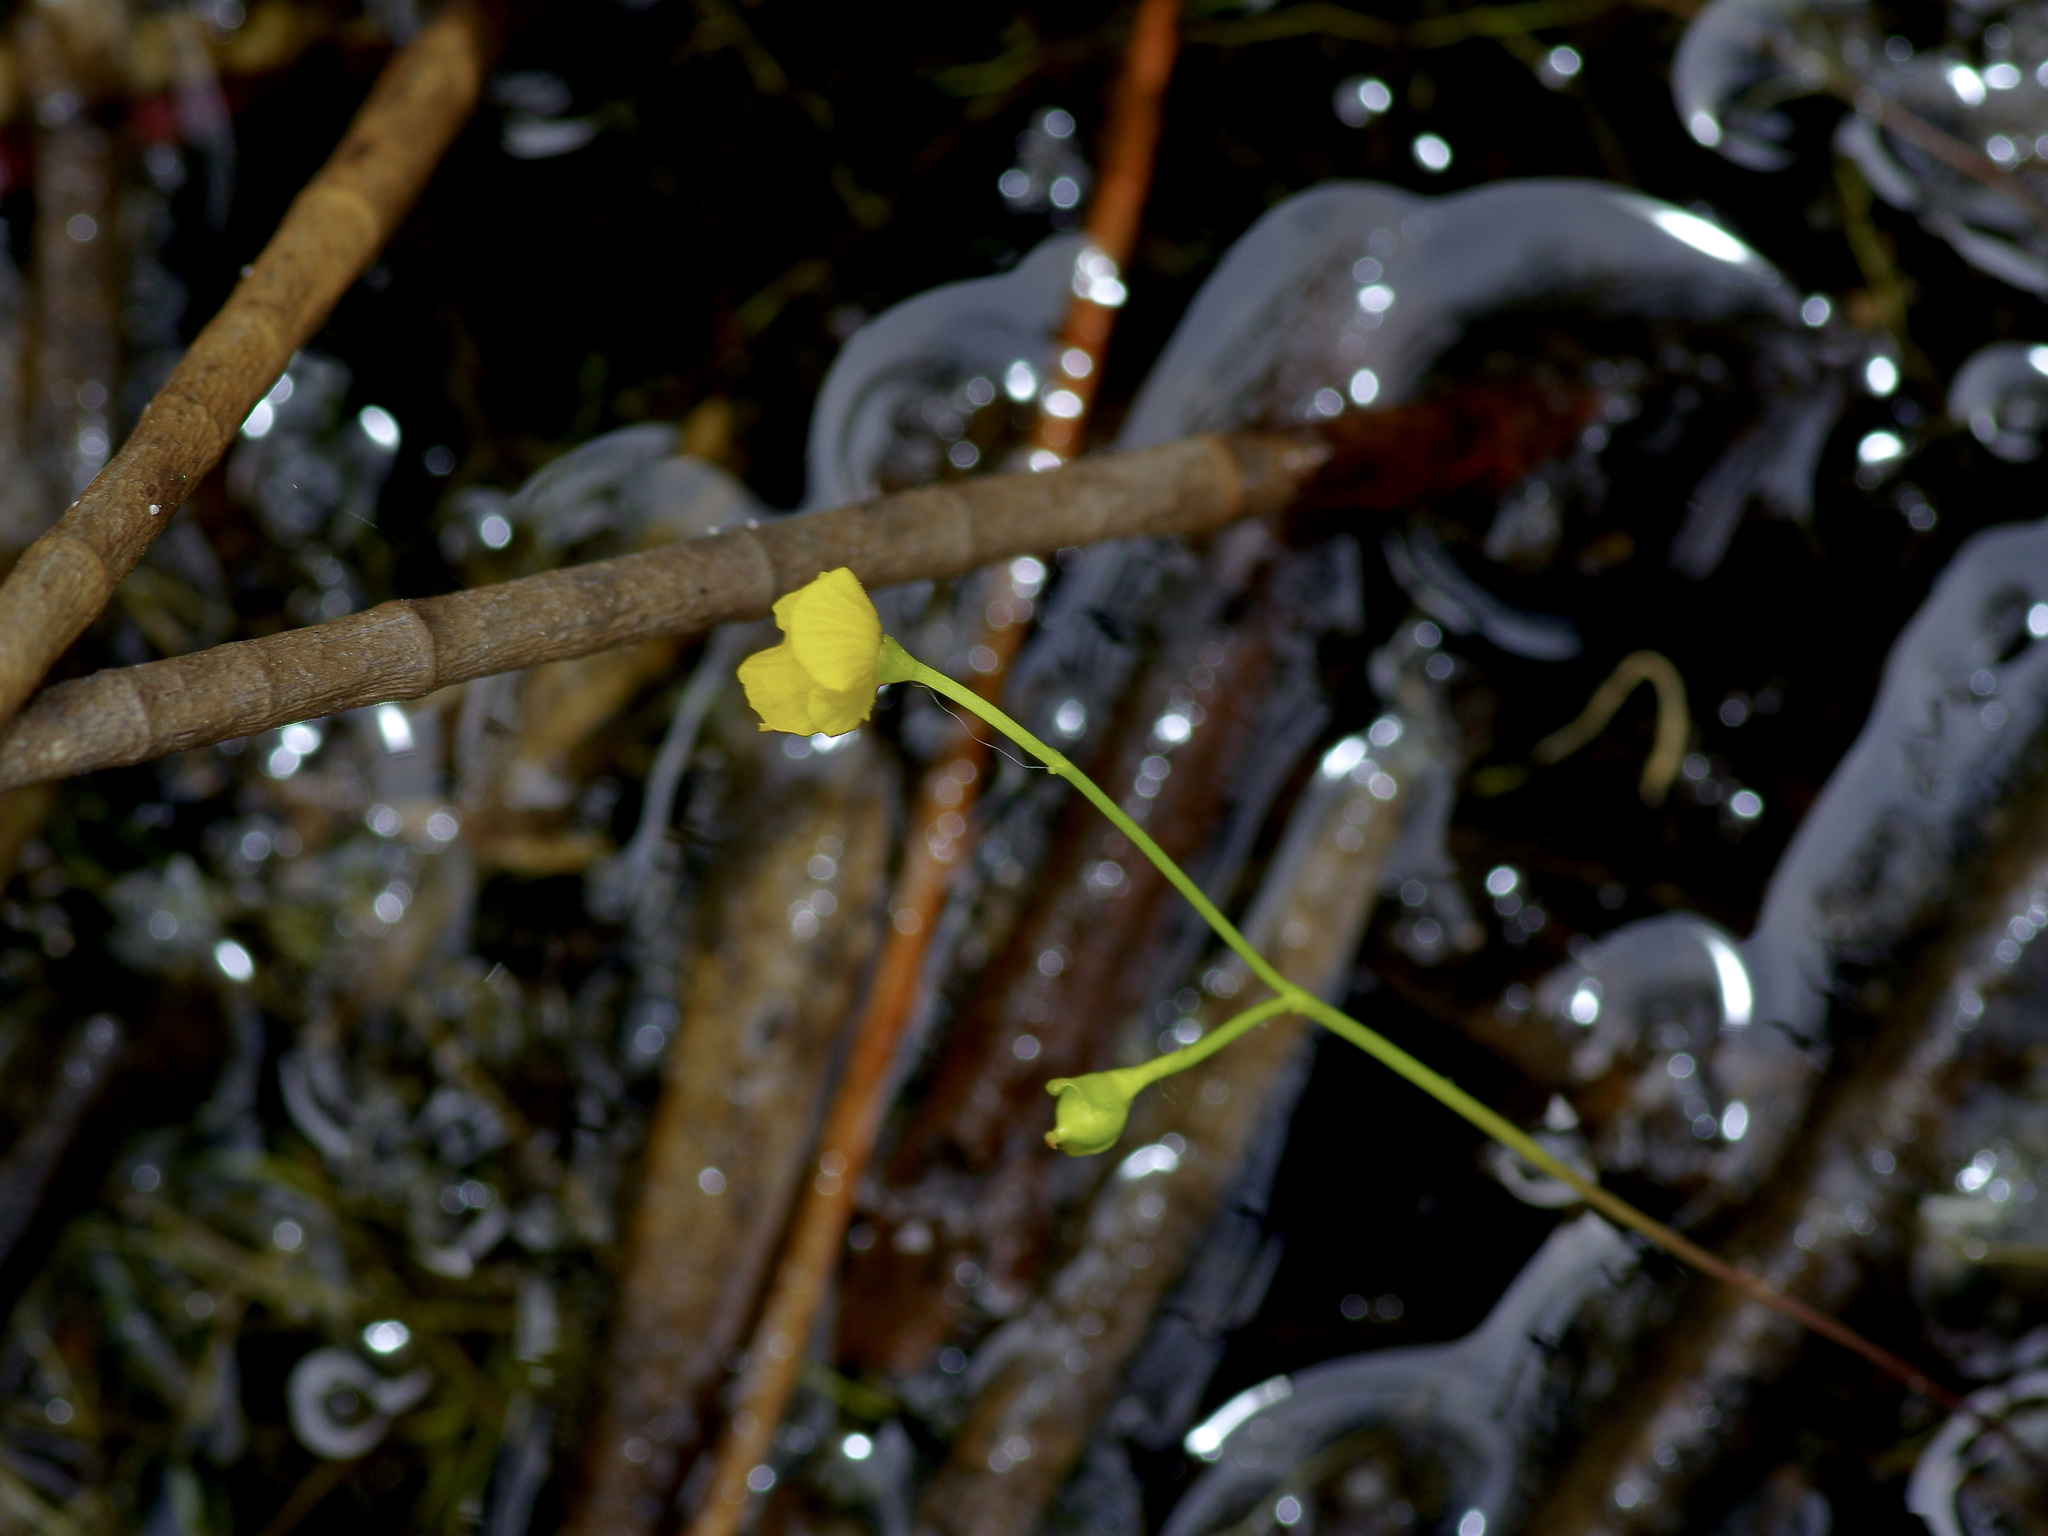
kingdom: Plantae
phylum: Tracheophyta
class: Magnoliopsida
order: Lamiales
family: Lentibulariaceae
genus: Utricularia
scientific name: Utricularia gibba
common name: Humped bladderwort
